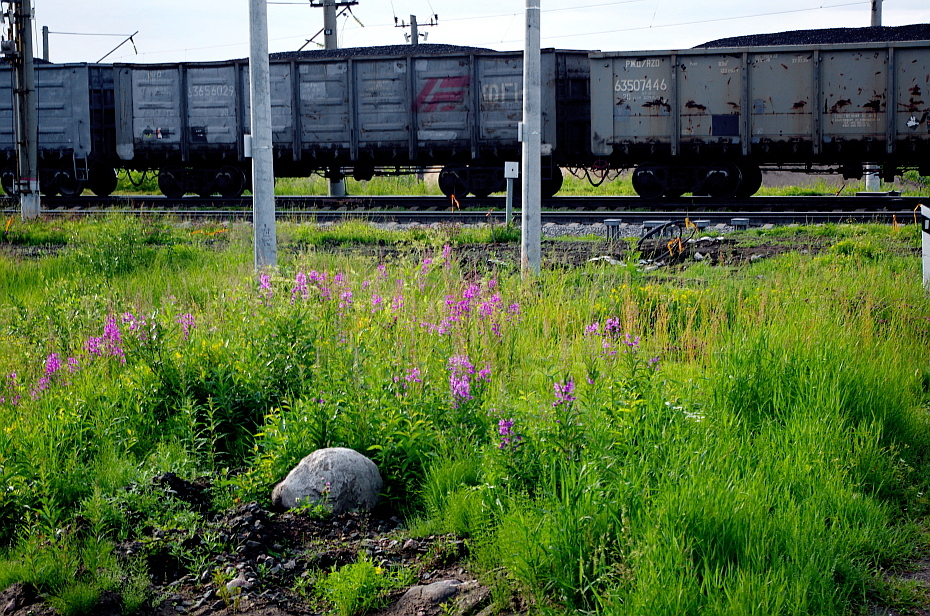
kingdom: Plantae
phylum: Tracheophyta
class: Magnoliopsida
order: Myrtales
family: Onagraceae
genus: Chamaenerion
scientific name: Chamaenerion angustifolium
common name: Fireweed
